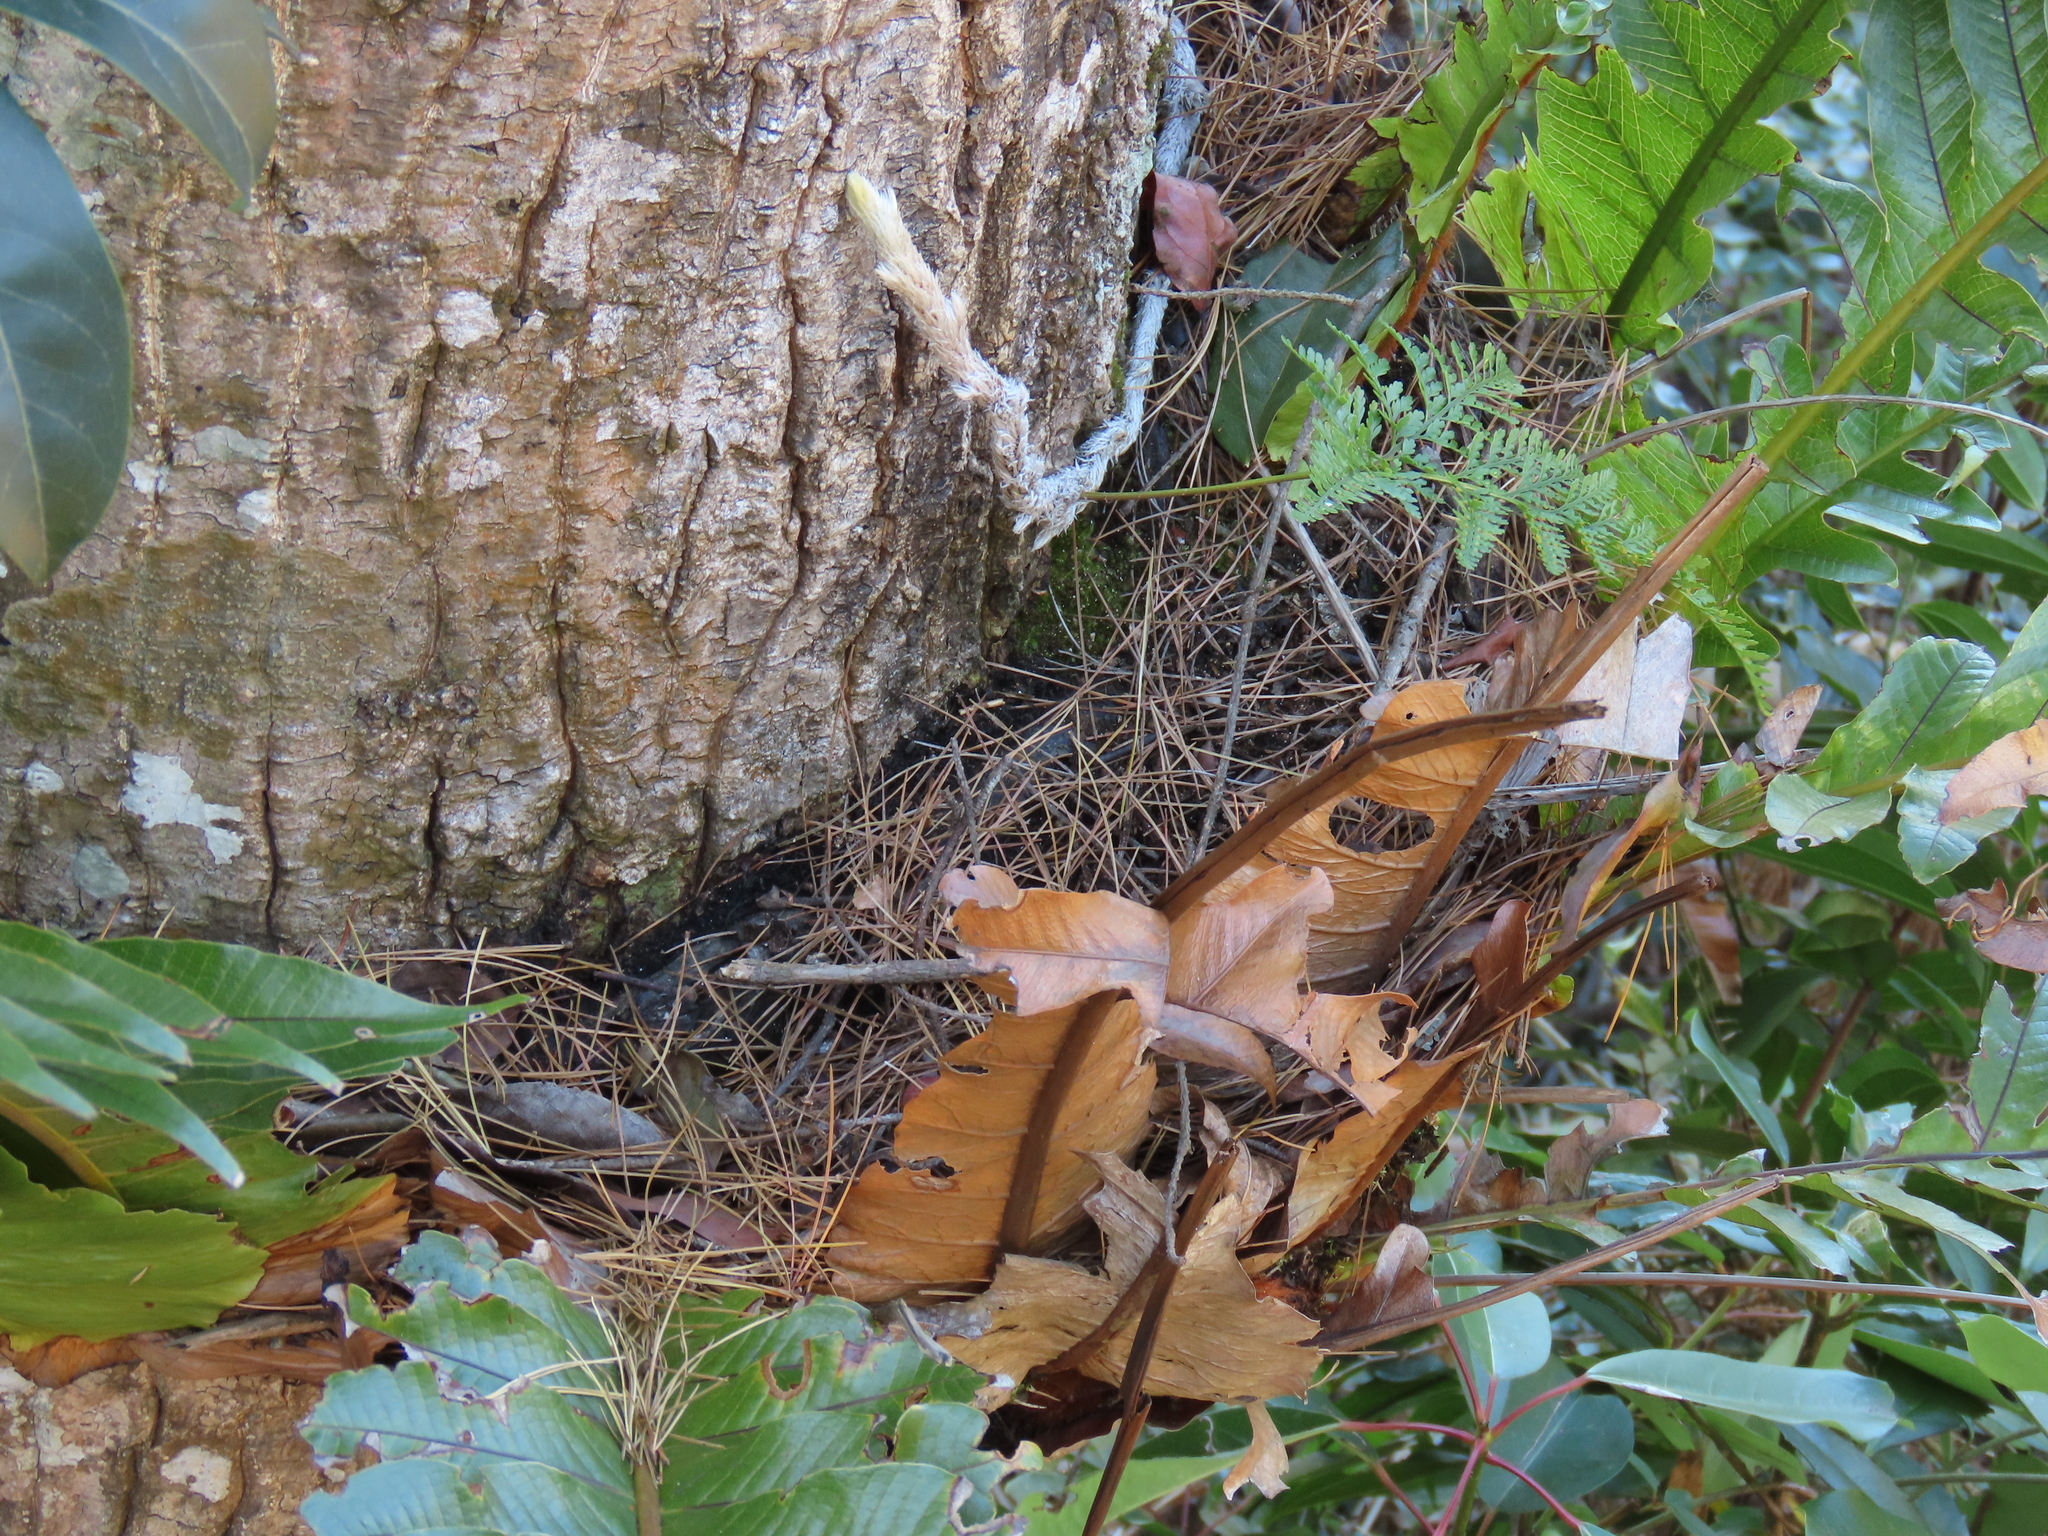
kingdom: Plantae
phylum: Tracheophyta
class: Polypodiopsida
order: Polypodiales
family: Polypodiaceae
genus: Drynaria
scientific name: Drynaria coronans
